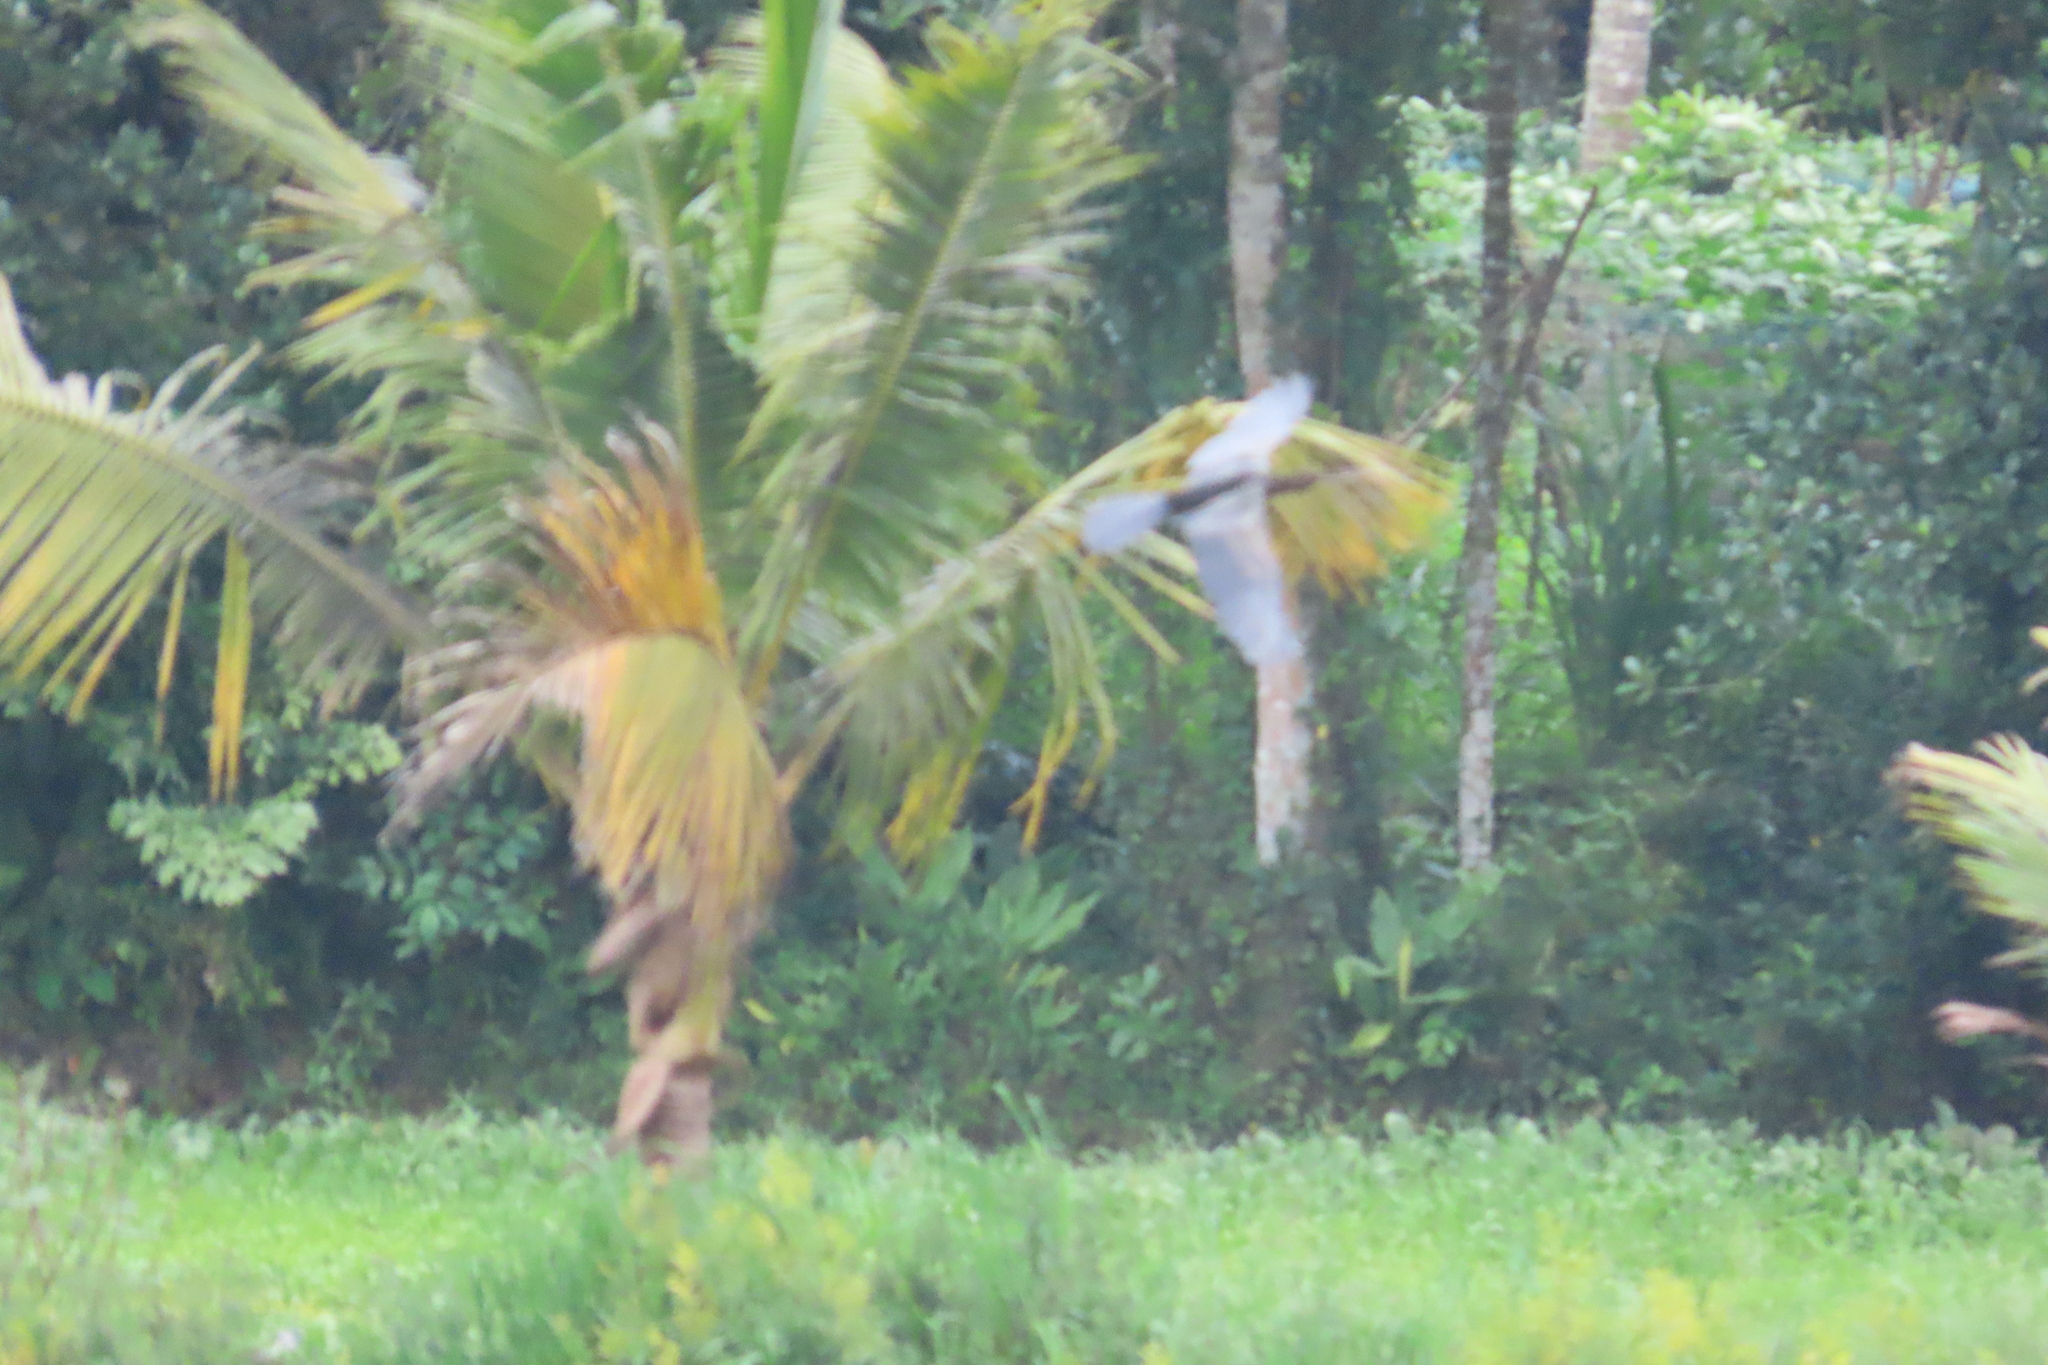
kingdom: Animalia
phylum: Chordata
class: Aves
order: Suliformes
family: Anhingidae
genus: Anhinga
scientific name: Anhinga melanogaster
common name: Oriental darter
